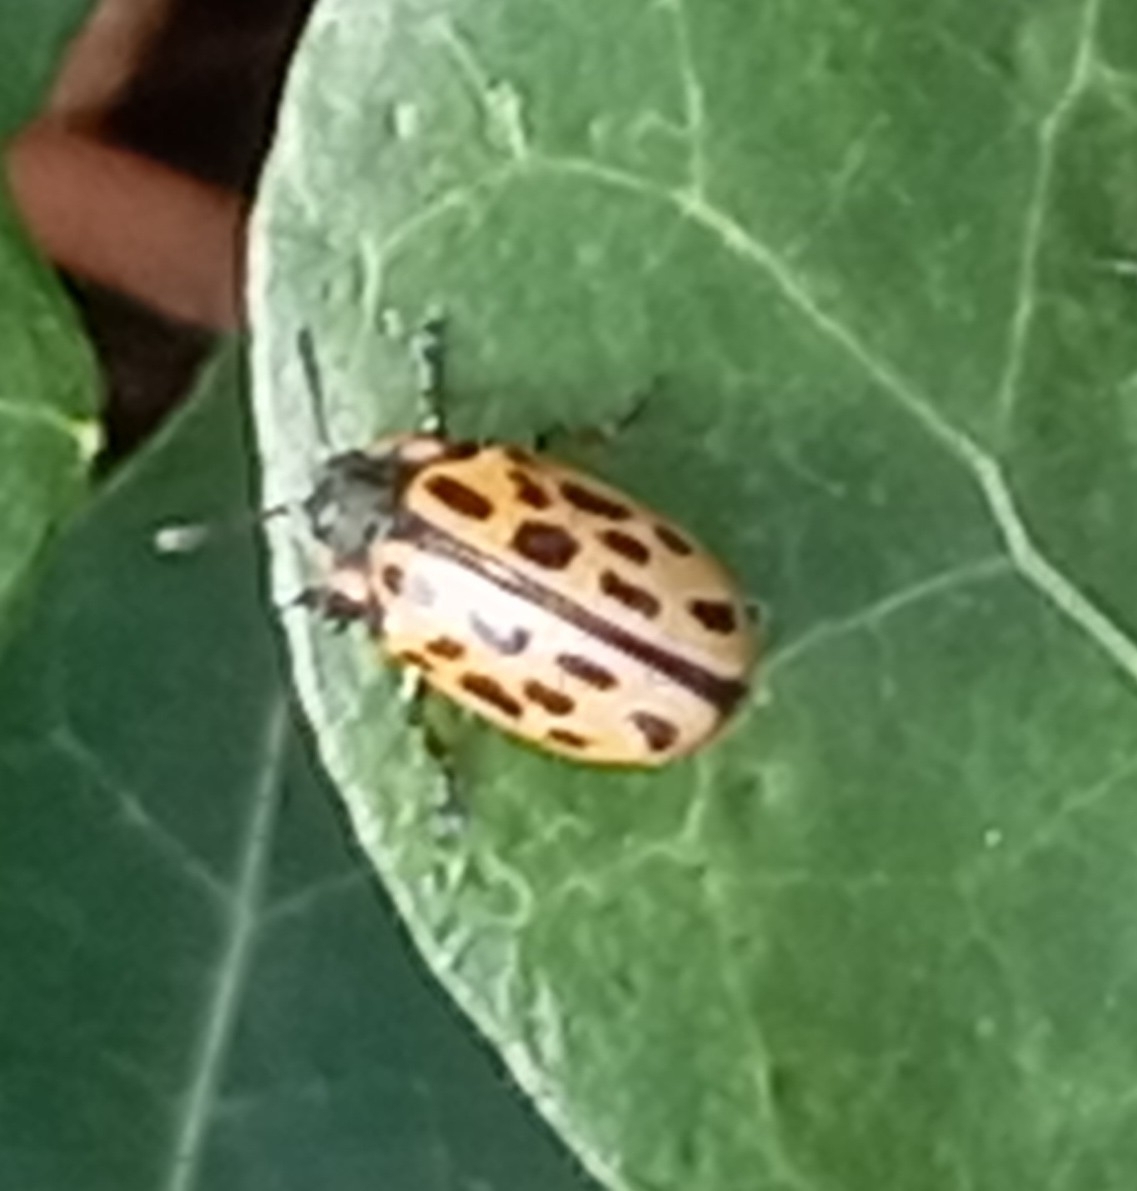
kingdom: Animalia
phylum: Arthropoda
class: Insecta
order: Coleoptera
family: Chrysomelidae
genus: Chrysomela
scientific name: Chrysomela vigintipunctata
